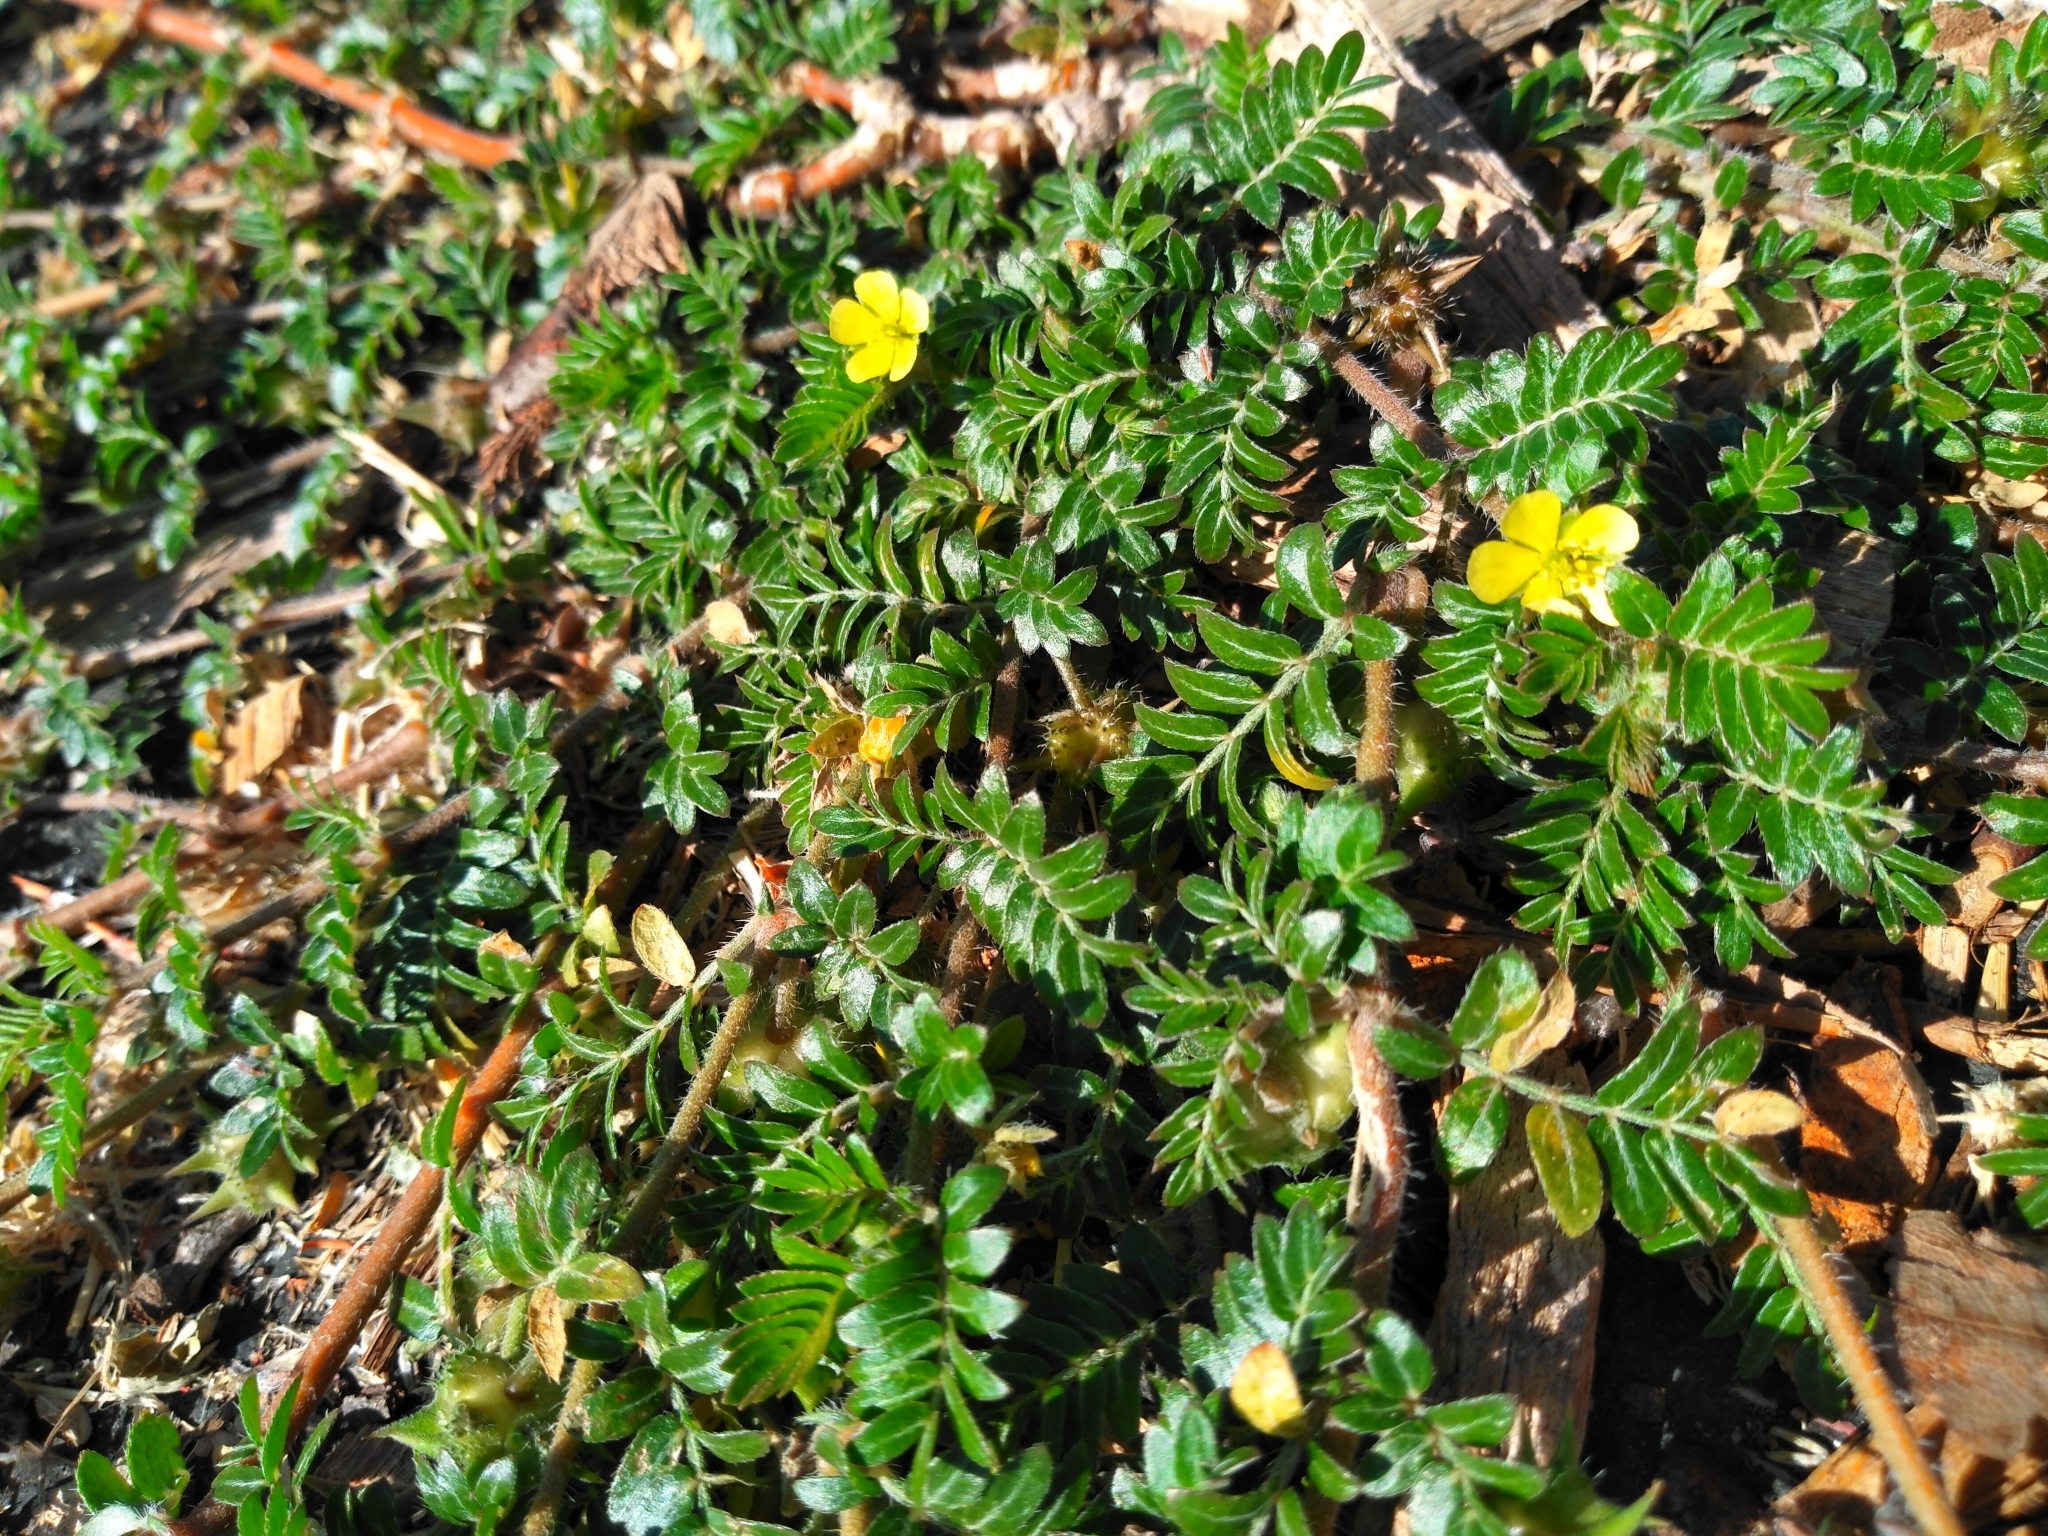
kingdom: Plantae
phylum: Tracheophyta
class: Magnoliopsida
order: Zygophyllales
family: Zygophyllaceae
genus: Tribulus
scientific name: Tribulus terrestris
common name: Puncturevine
